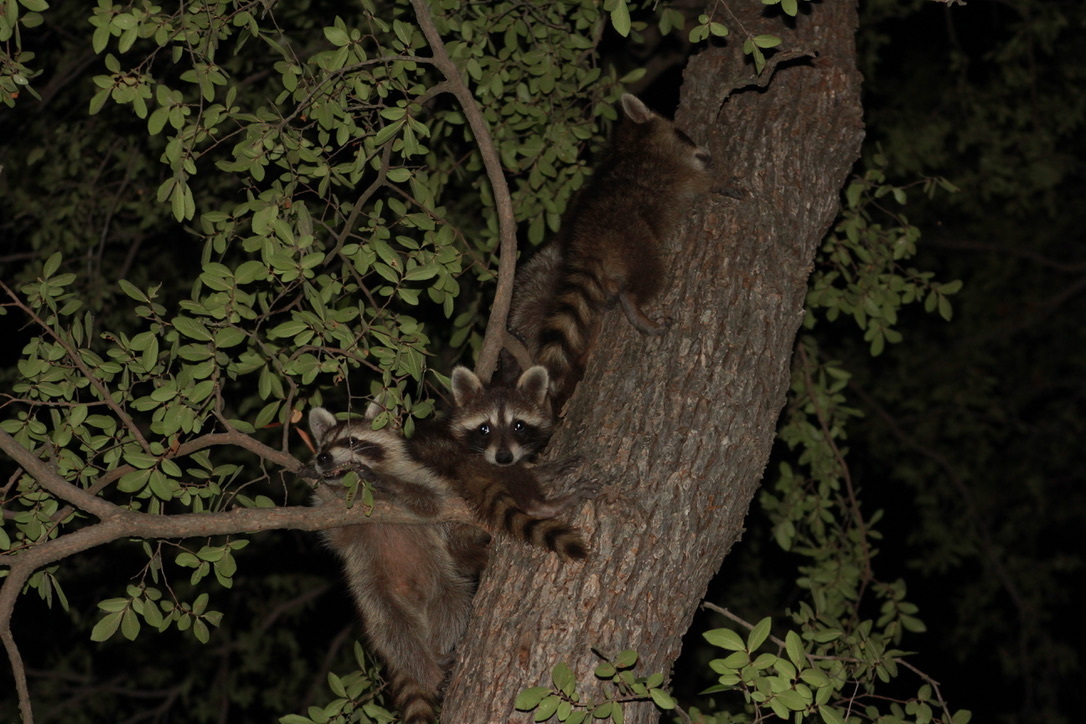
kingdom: Animalia
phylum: Chordata
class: Mammalia
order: Carnivora
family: Procyonidae
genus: Procyon
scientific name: Procyon lotor
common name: Raccoon
